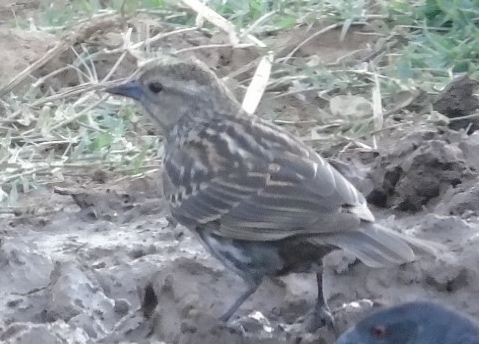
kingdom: Animalia
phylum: Chordata
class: Aves
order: Passeriformes
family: Icteridae
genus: Agelaius
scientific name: Agelaius phoeniceus
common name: Red-winged blackbird
